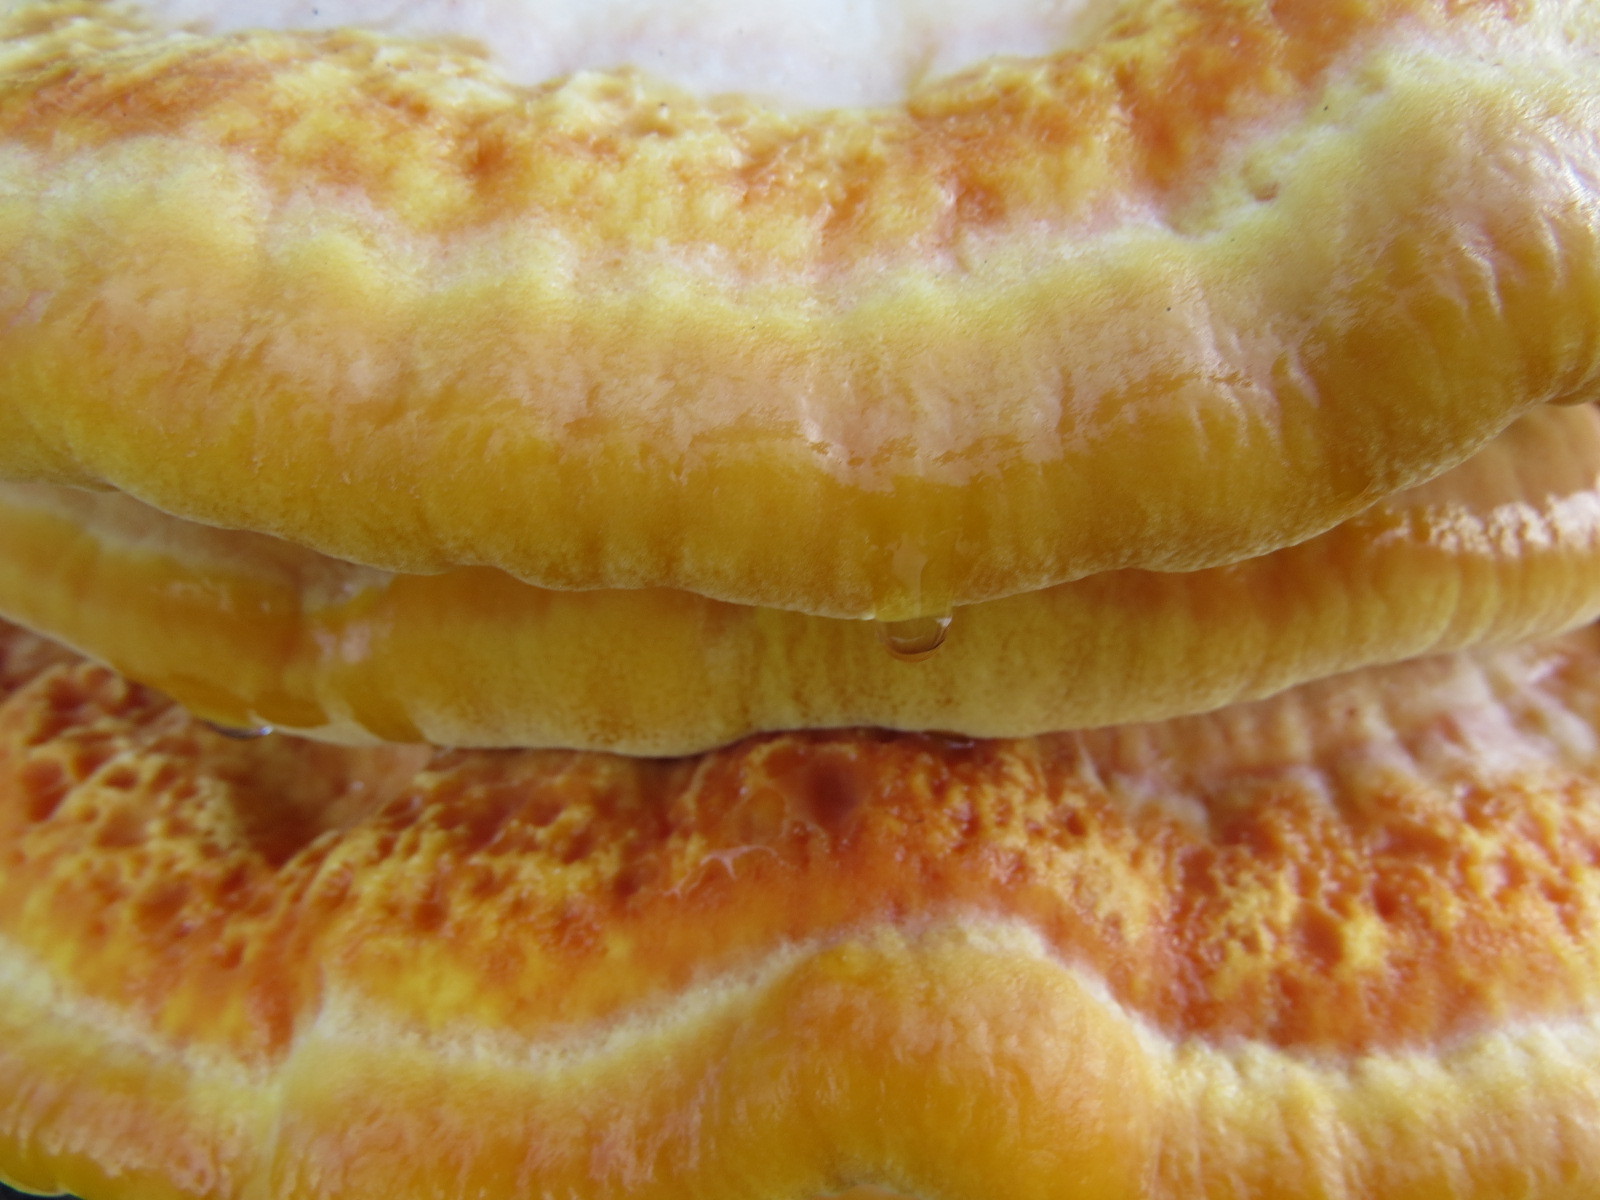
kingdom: Fungi
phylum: Basidiomycota
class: Agaricomycetes
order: Polyporales
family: Laetiporaceae
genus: Laetiporus
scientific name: Laetiporus gilbertsonii
